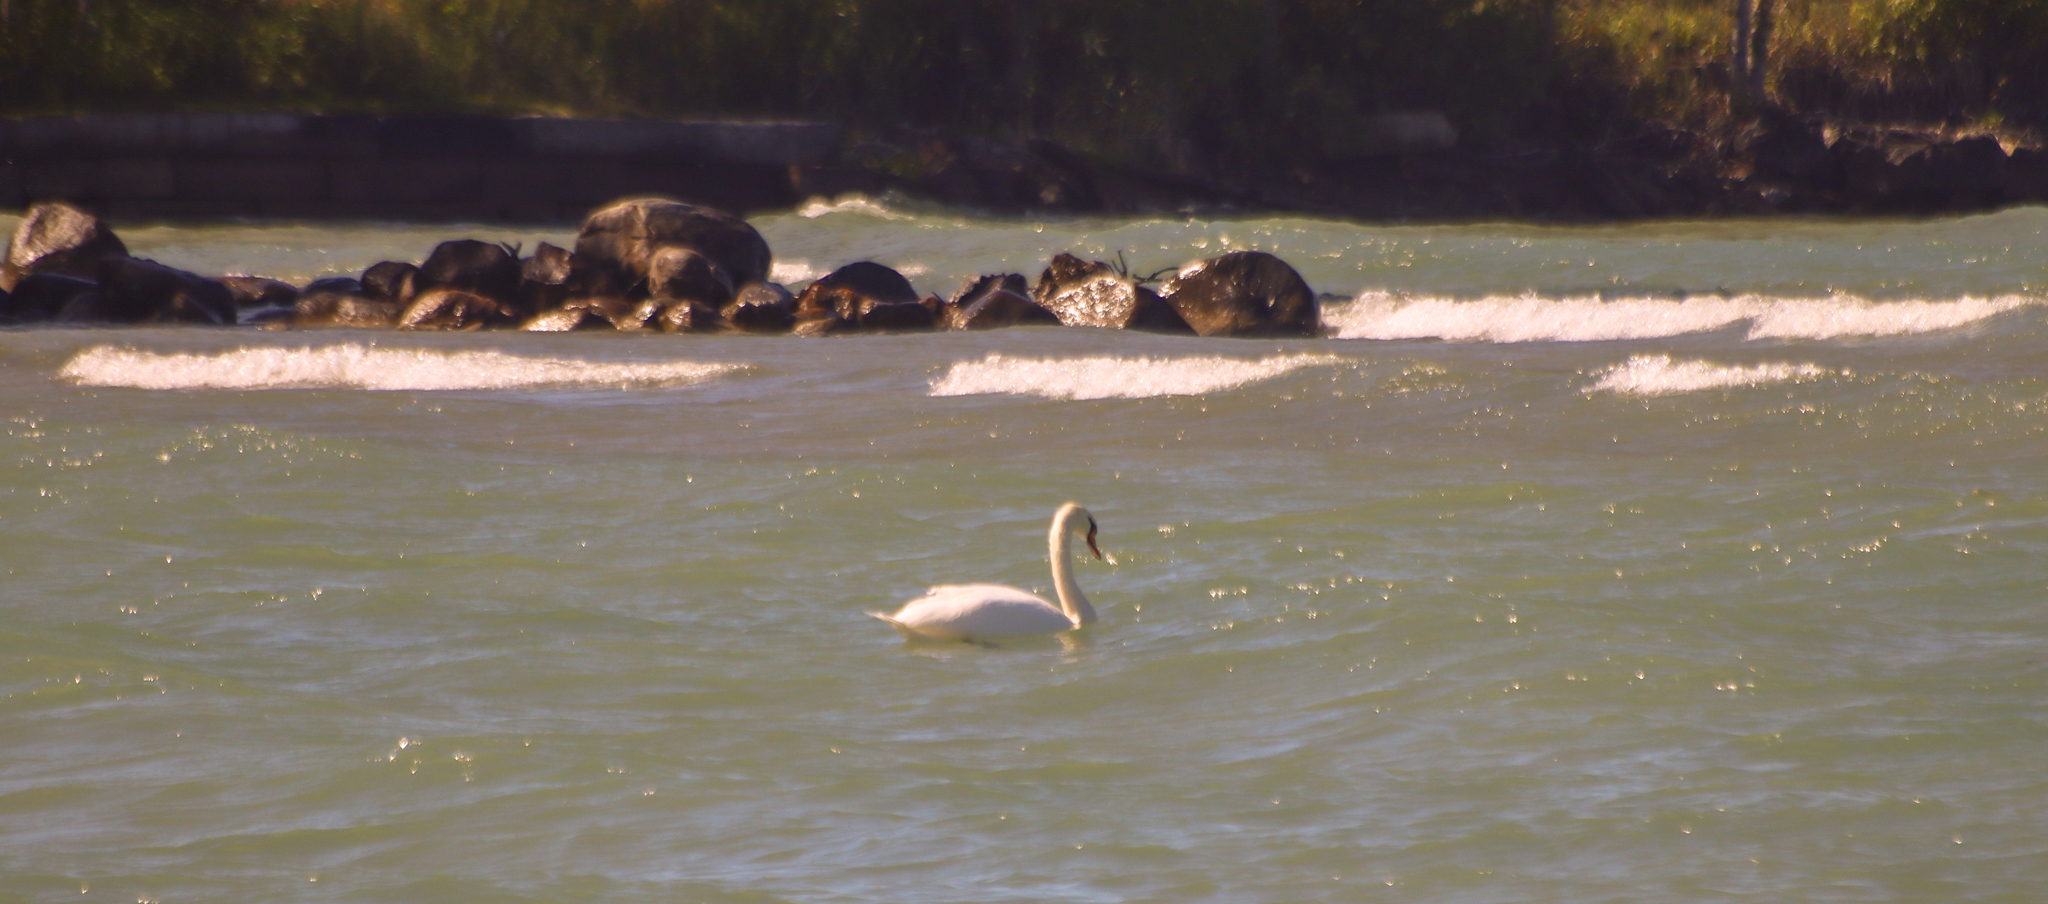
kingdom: Animalia
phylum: Chordata
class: Aves
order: Anseriformes
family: Anatidae
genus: Cygnus
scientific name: Cygnus olor
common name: Mute swan
